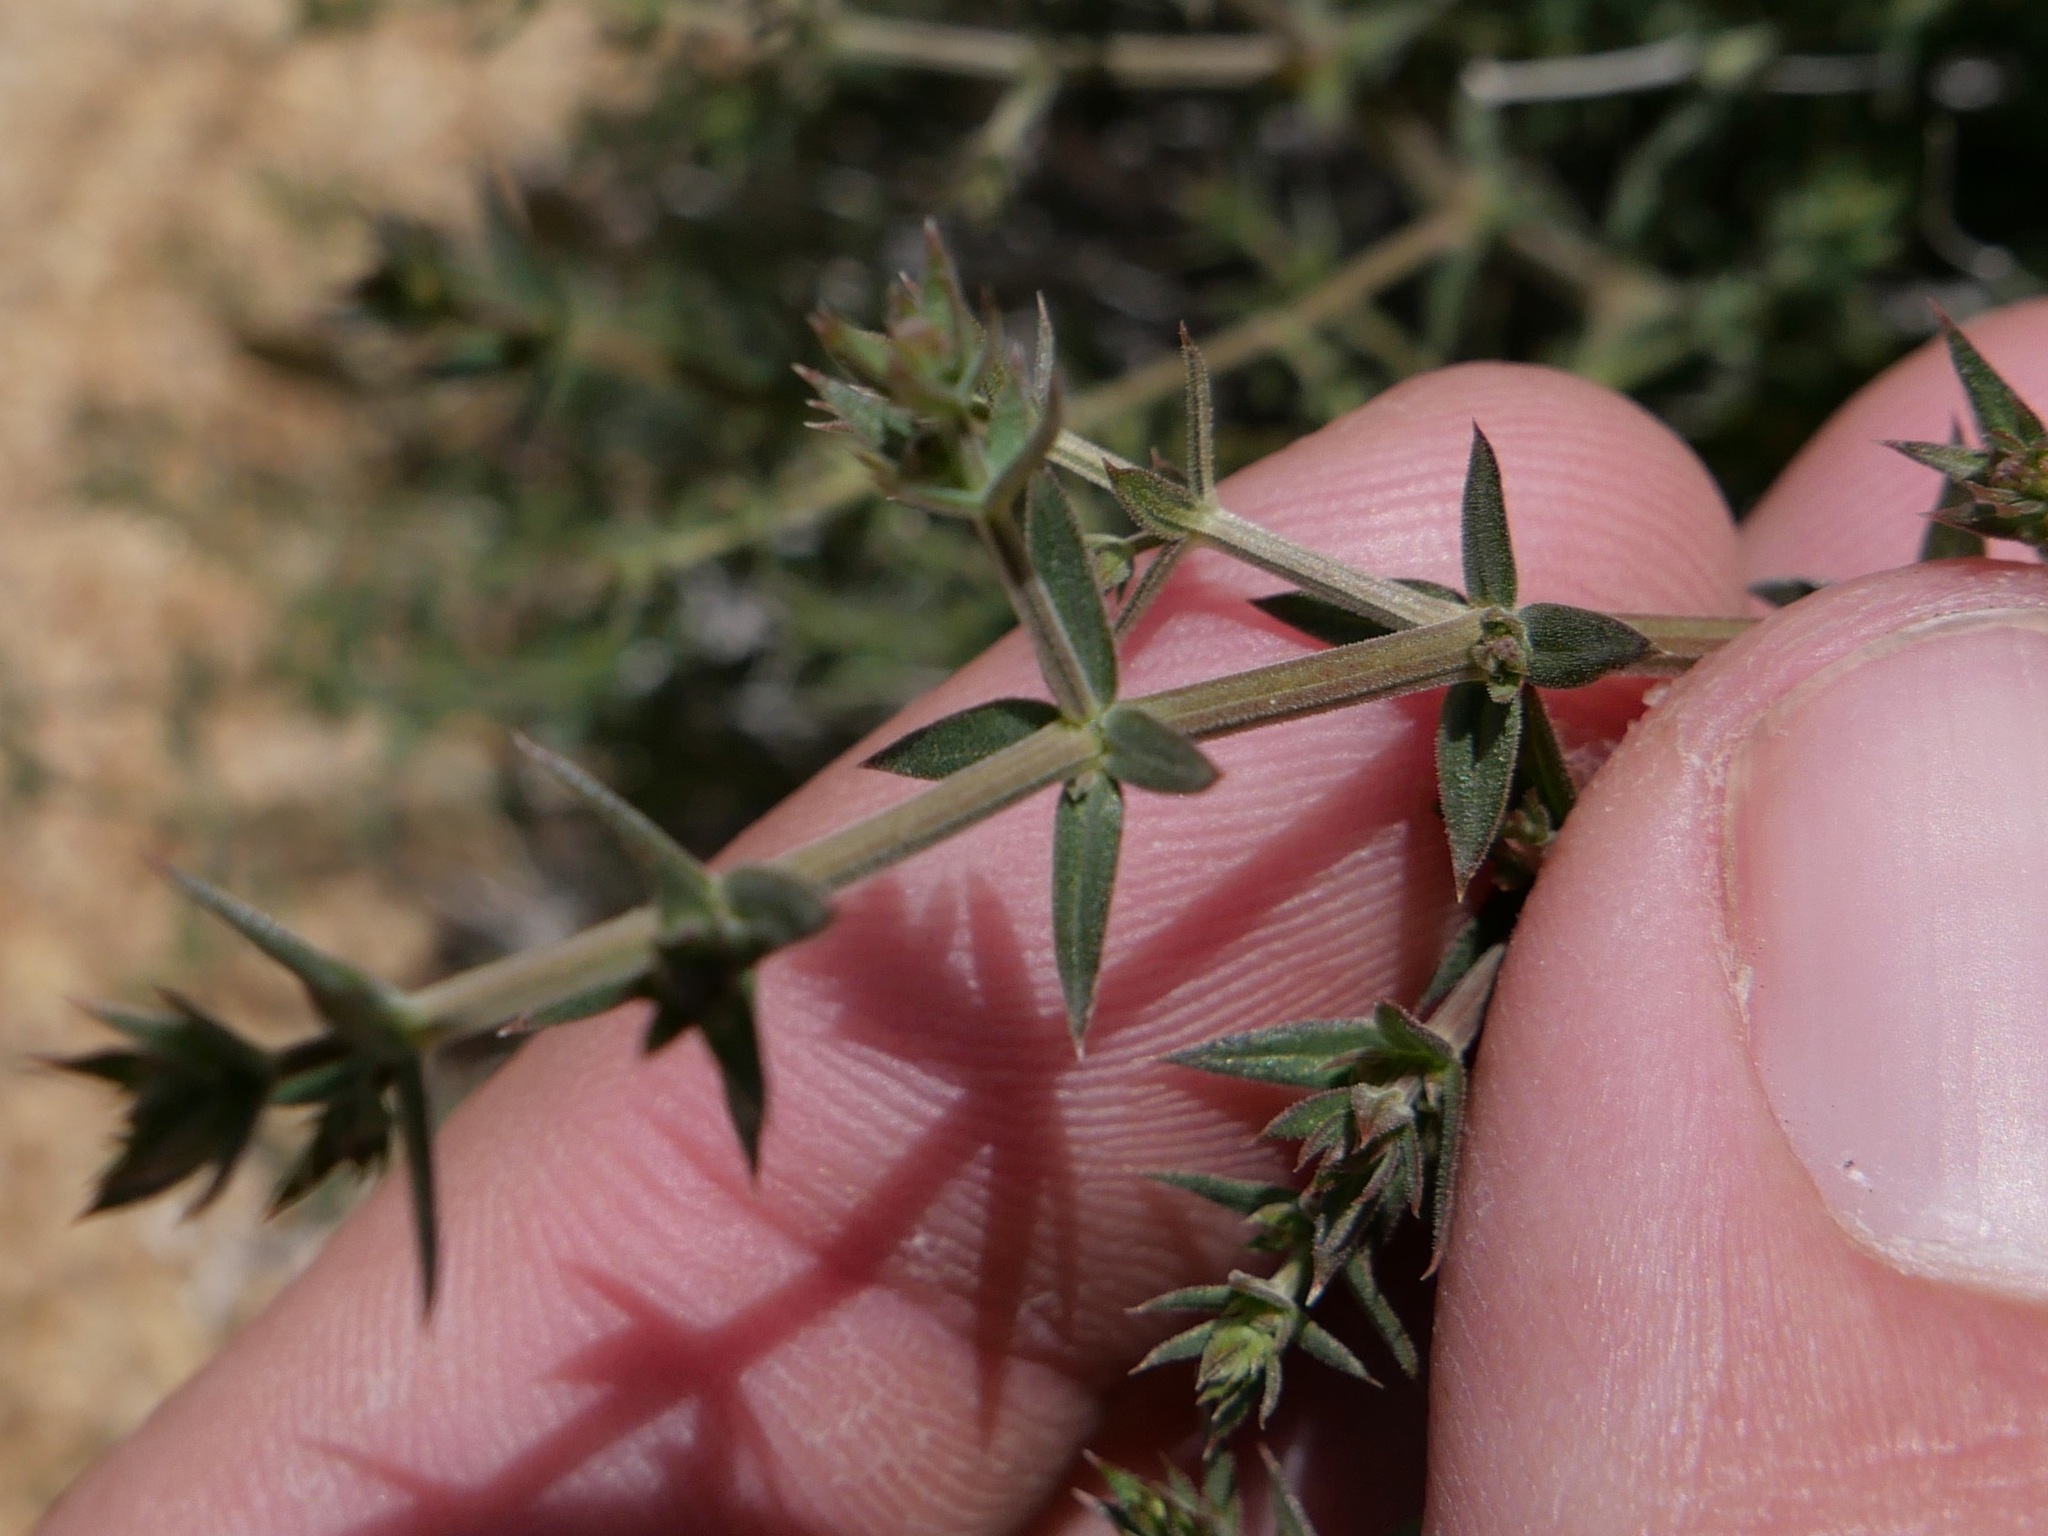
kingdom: Plantae
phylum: Tracheophyta
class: Magnoliopsida
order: Gentianales
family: Rubiaceae
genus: Galium
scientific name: Galium stellatum
